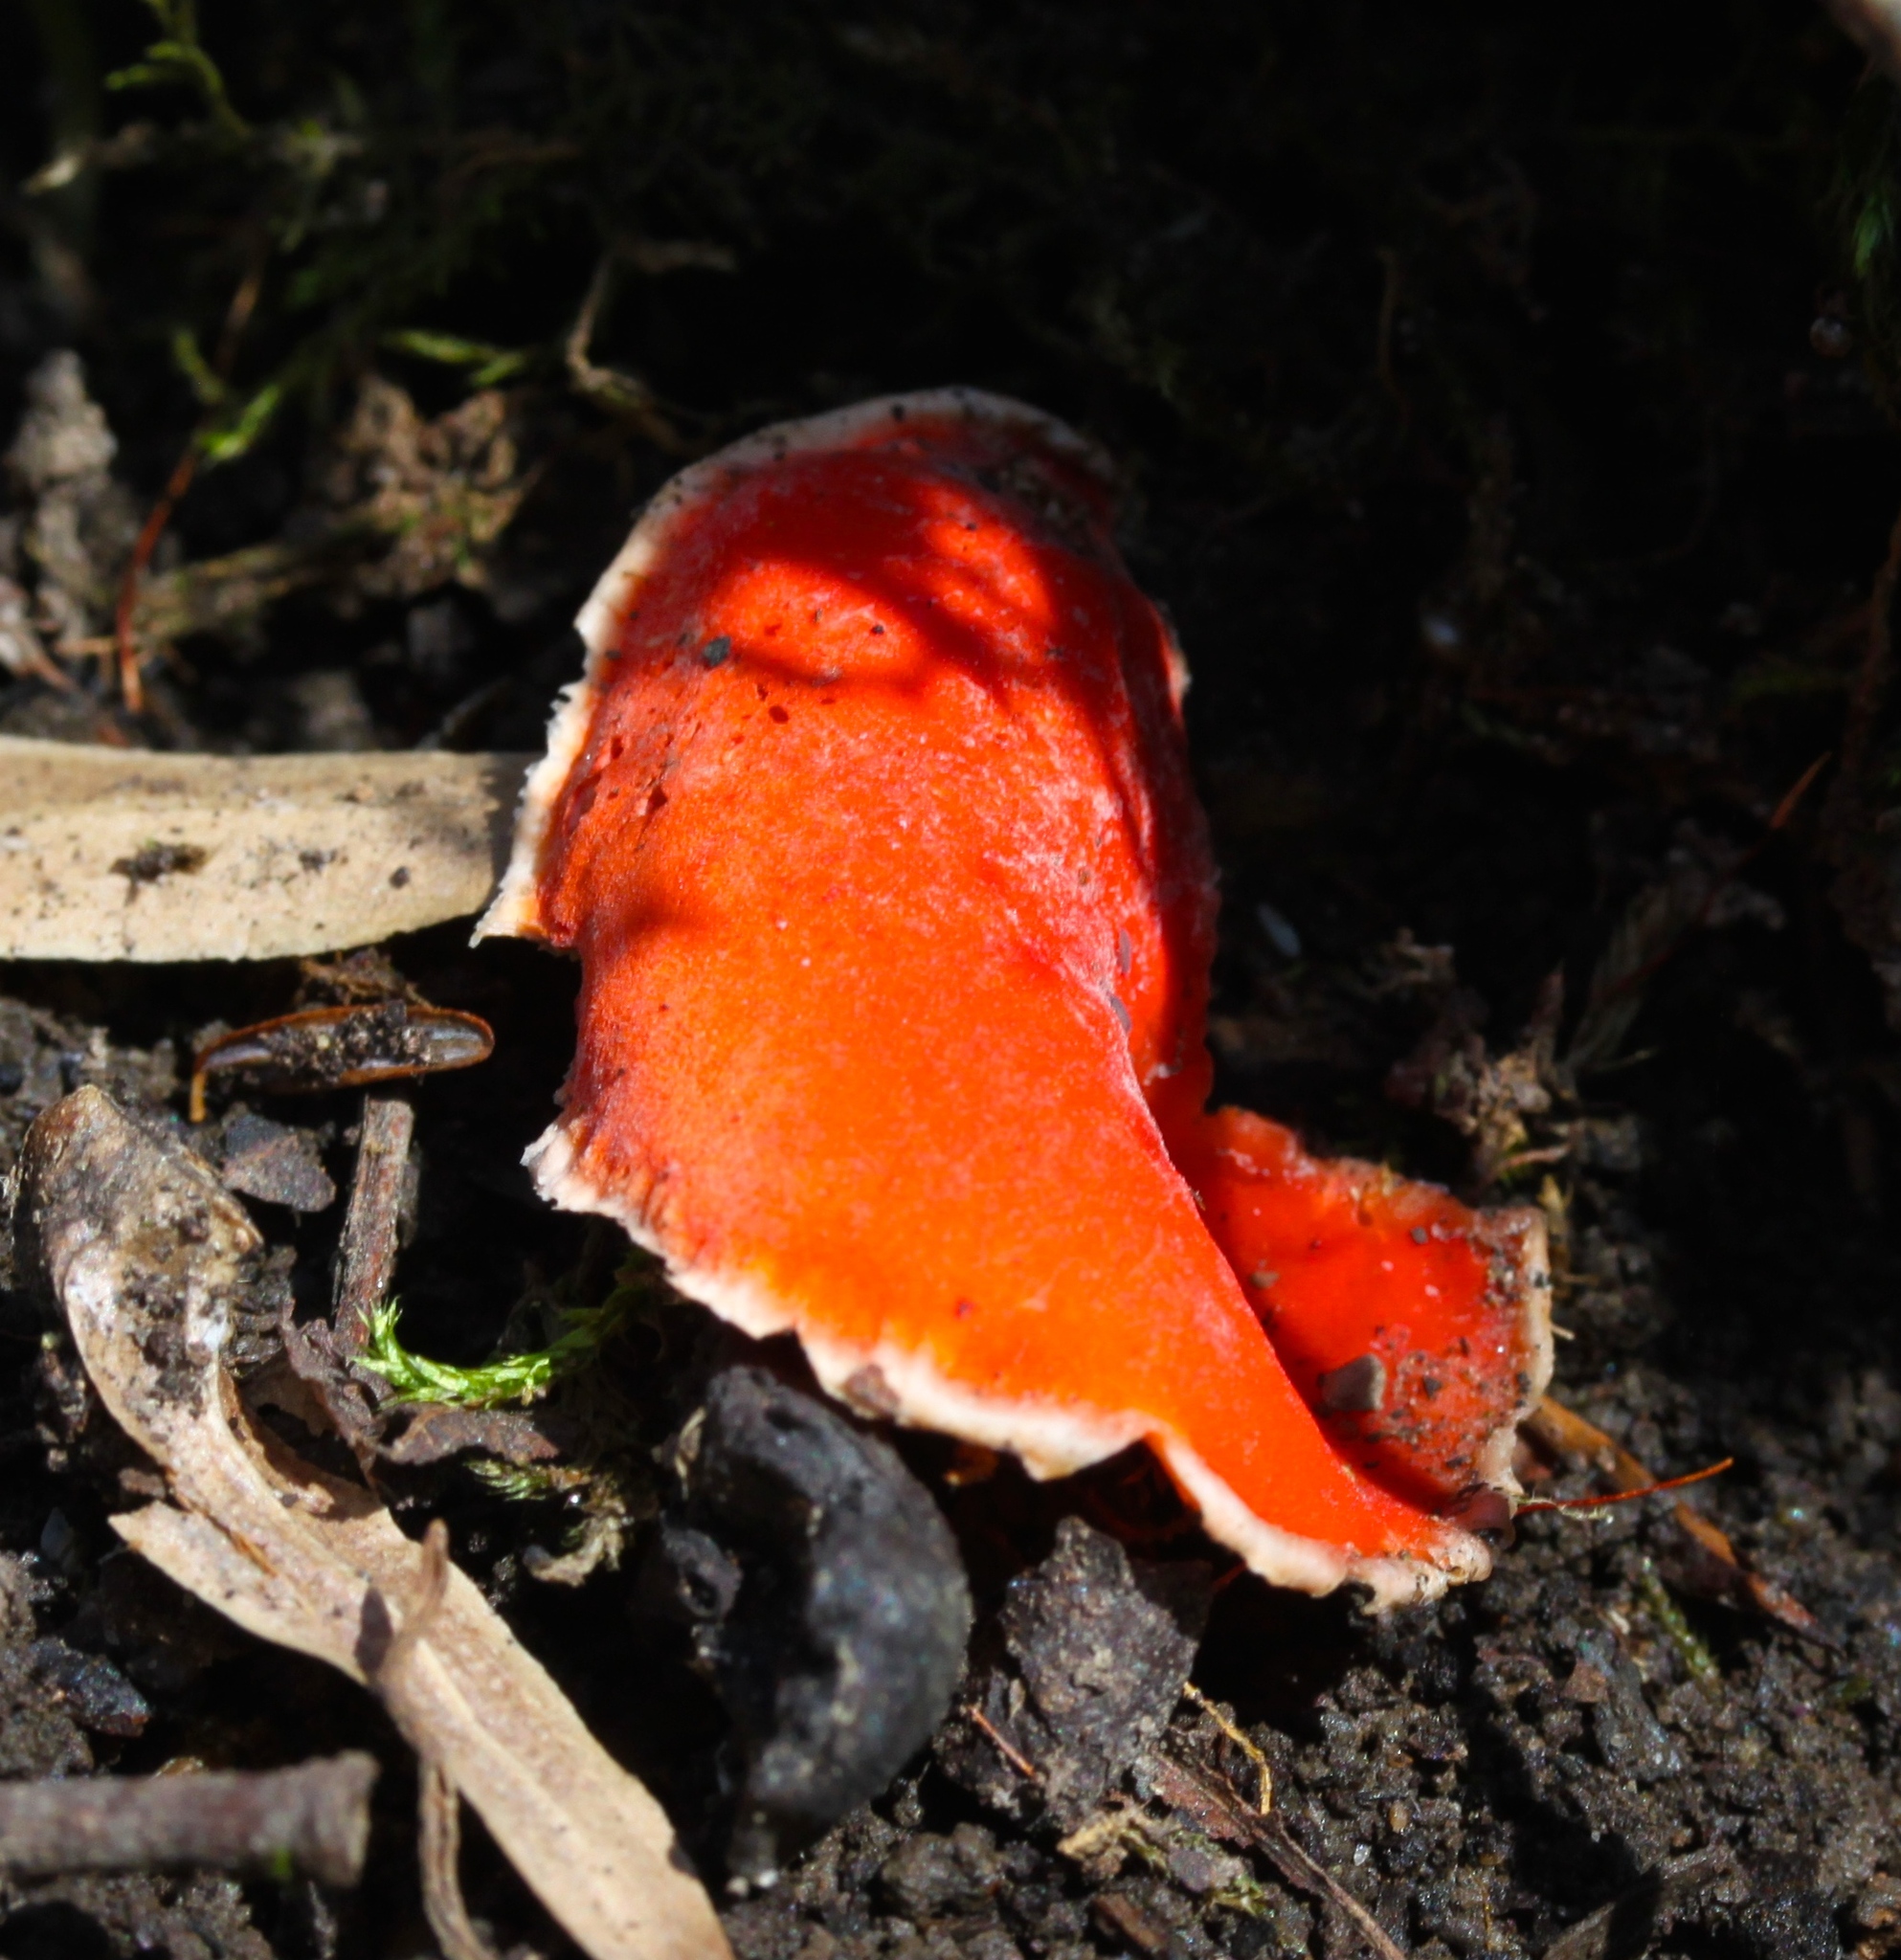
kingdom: Fungi
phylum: Ascomycota
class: Pezizomycetes
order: Pezizales
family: Sarcoscyphaceae
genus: Sarcoscypha
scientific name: Sarcoscypha austriaca
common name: Scarlet elfcup
